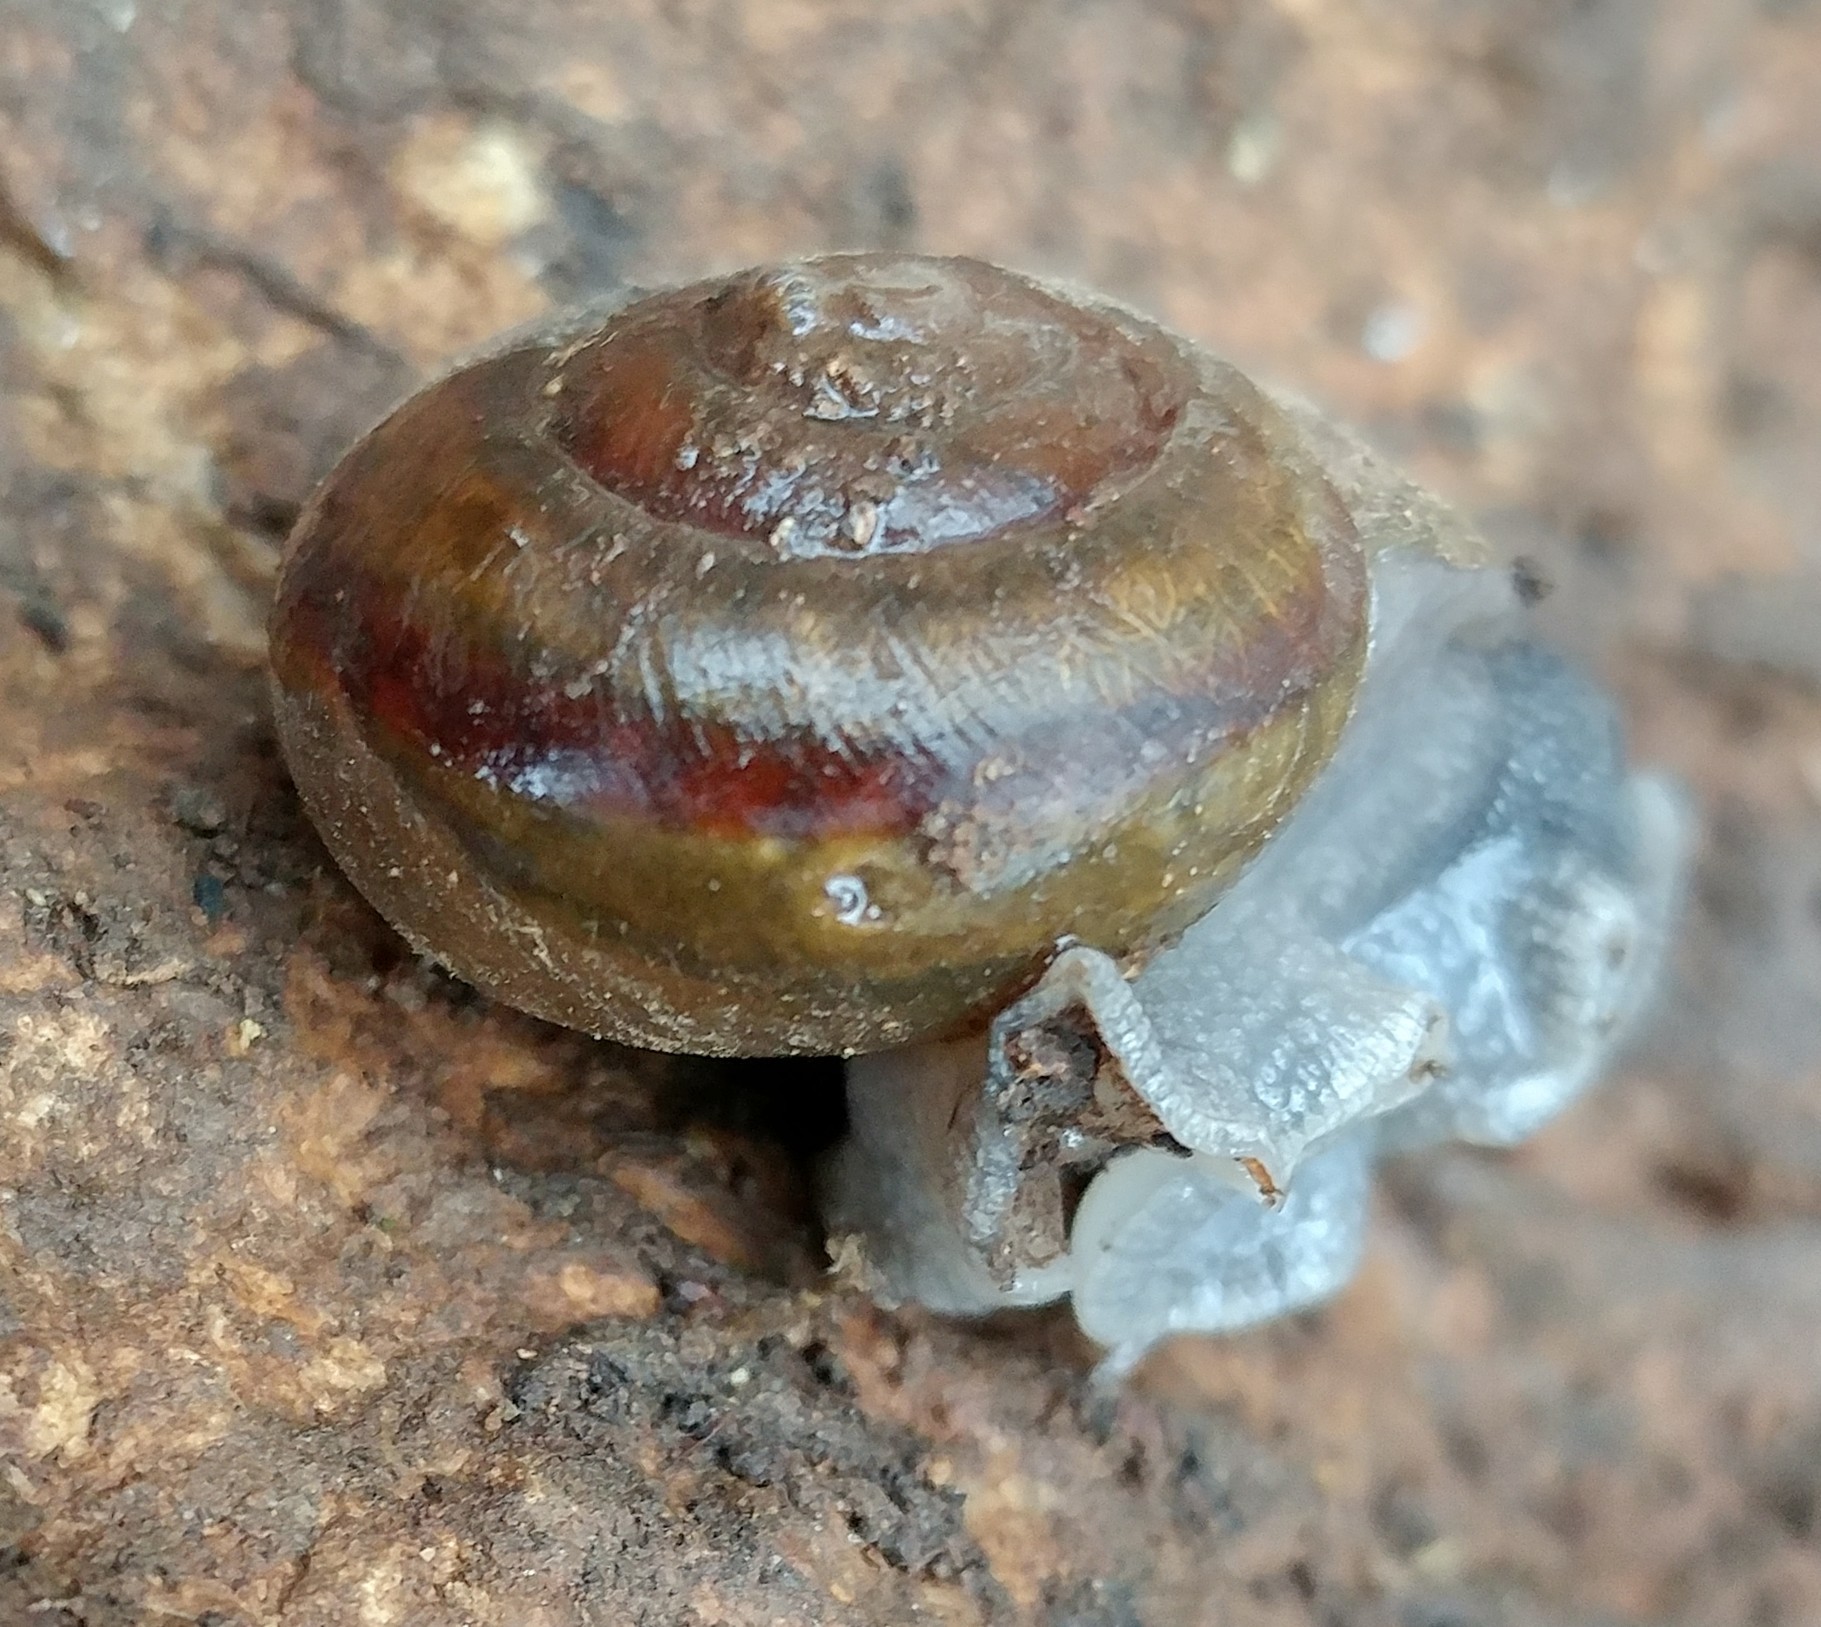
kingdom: Animalia
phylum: Mollusca
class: Gastropoda
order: Stylommatophora
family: Xanthonychidae
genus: Helminthoglypta
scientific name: Helminthoglypta tudiculata
